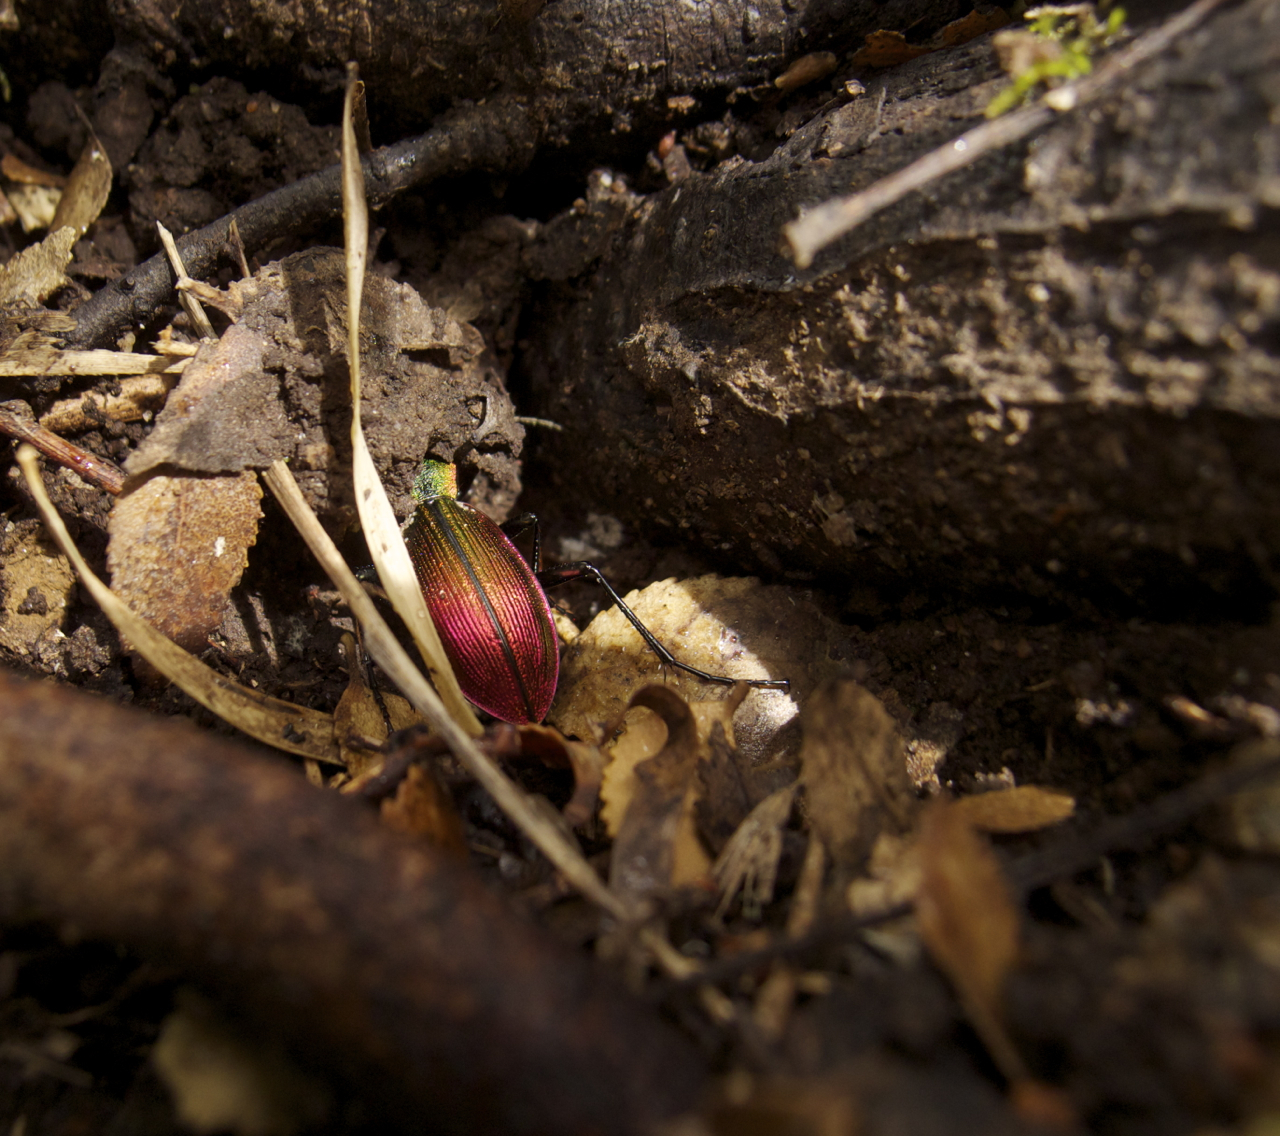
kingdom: Animalia
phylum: Arthropoda
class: Insecta
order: Coleoptera
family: Carabidae
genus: Ceroglossus
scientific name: Ceroglossus chilensis
